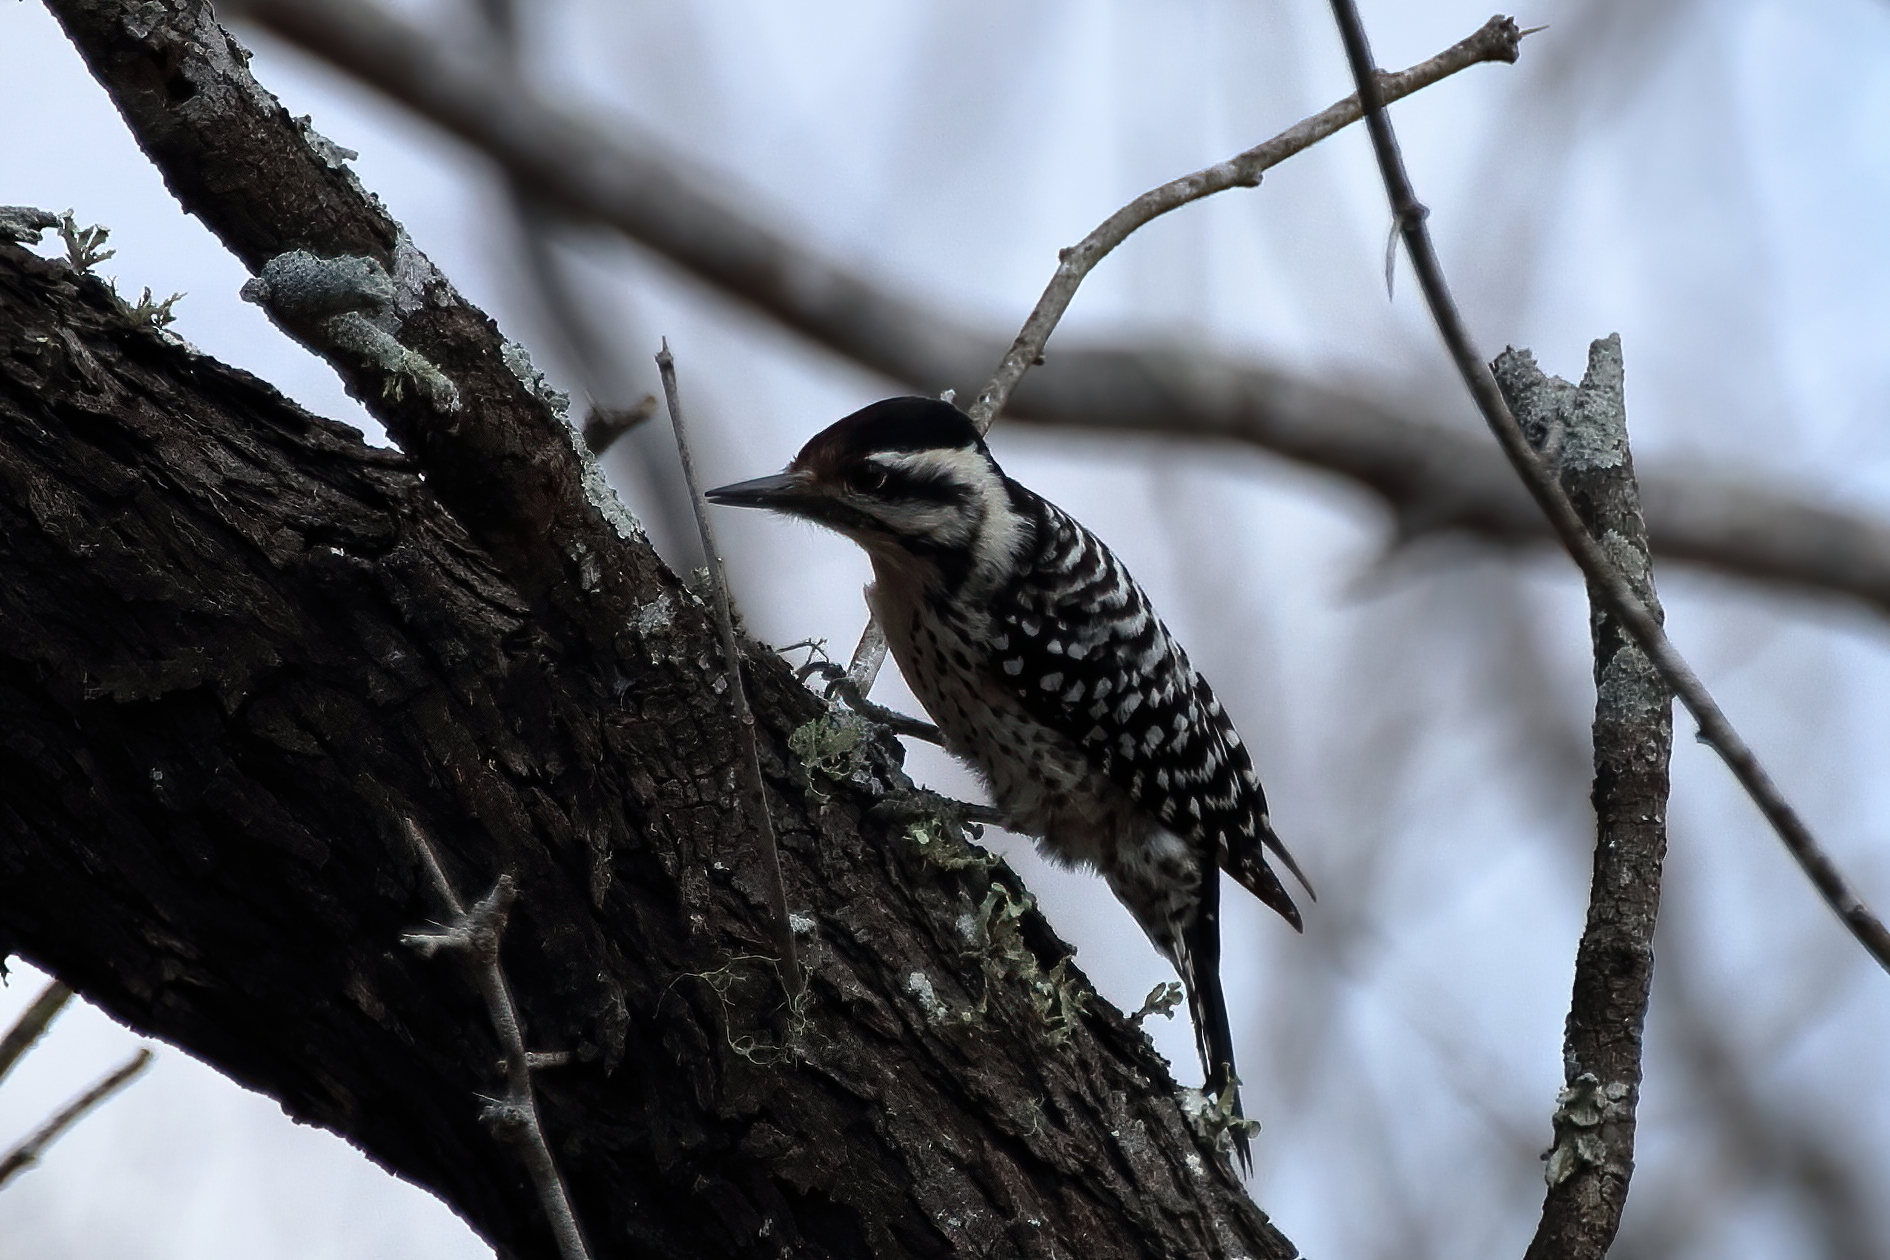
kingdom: Animalia
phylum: Chordata
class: Aves
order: Piciformes
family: Picidae
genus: Dryobates
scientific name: Dryobates scalaris
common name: Ladder-backed woodpecker
